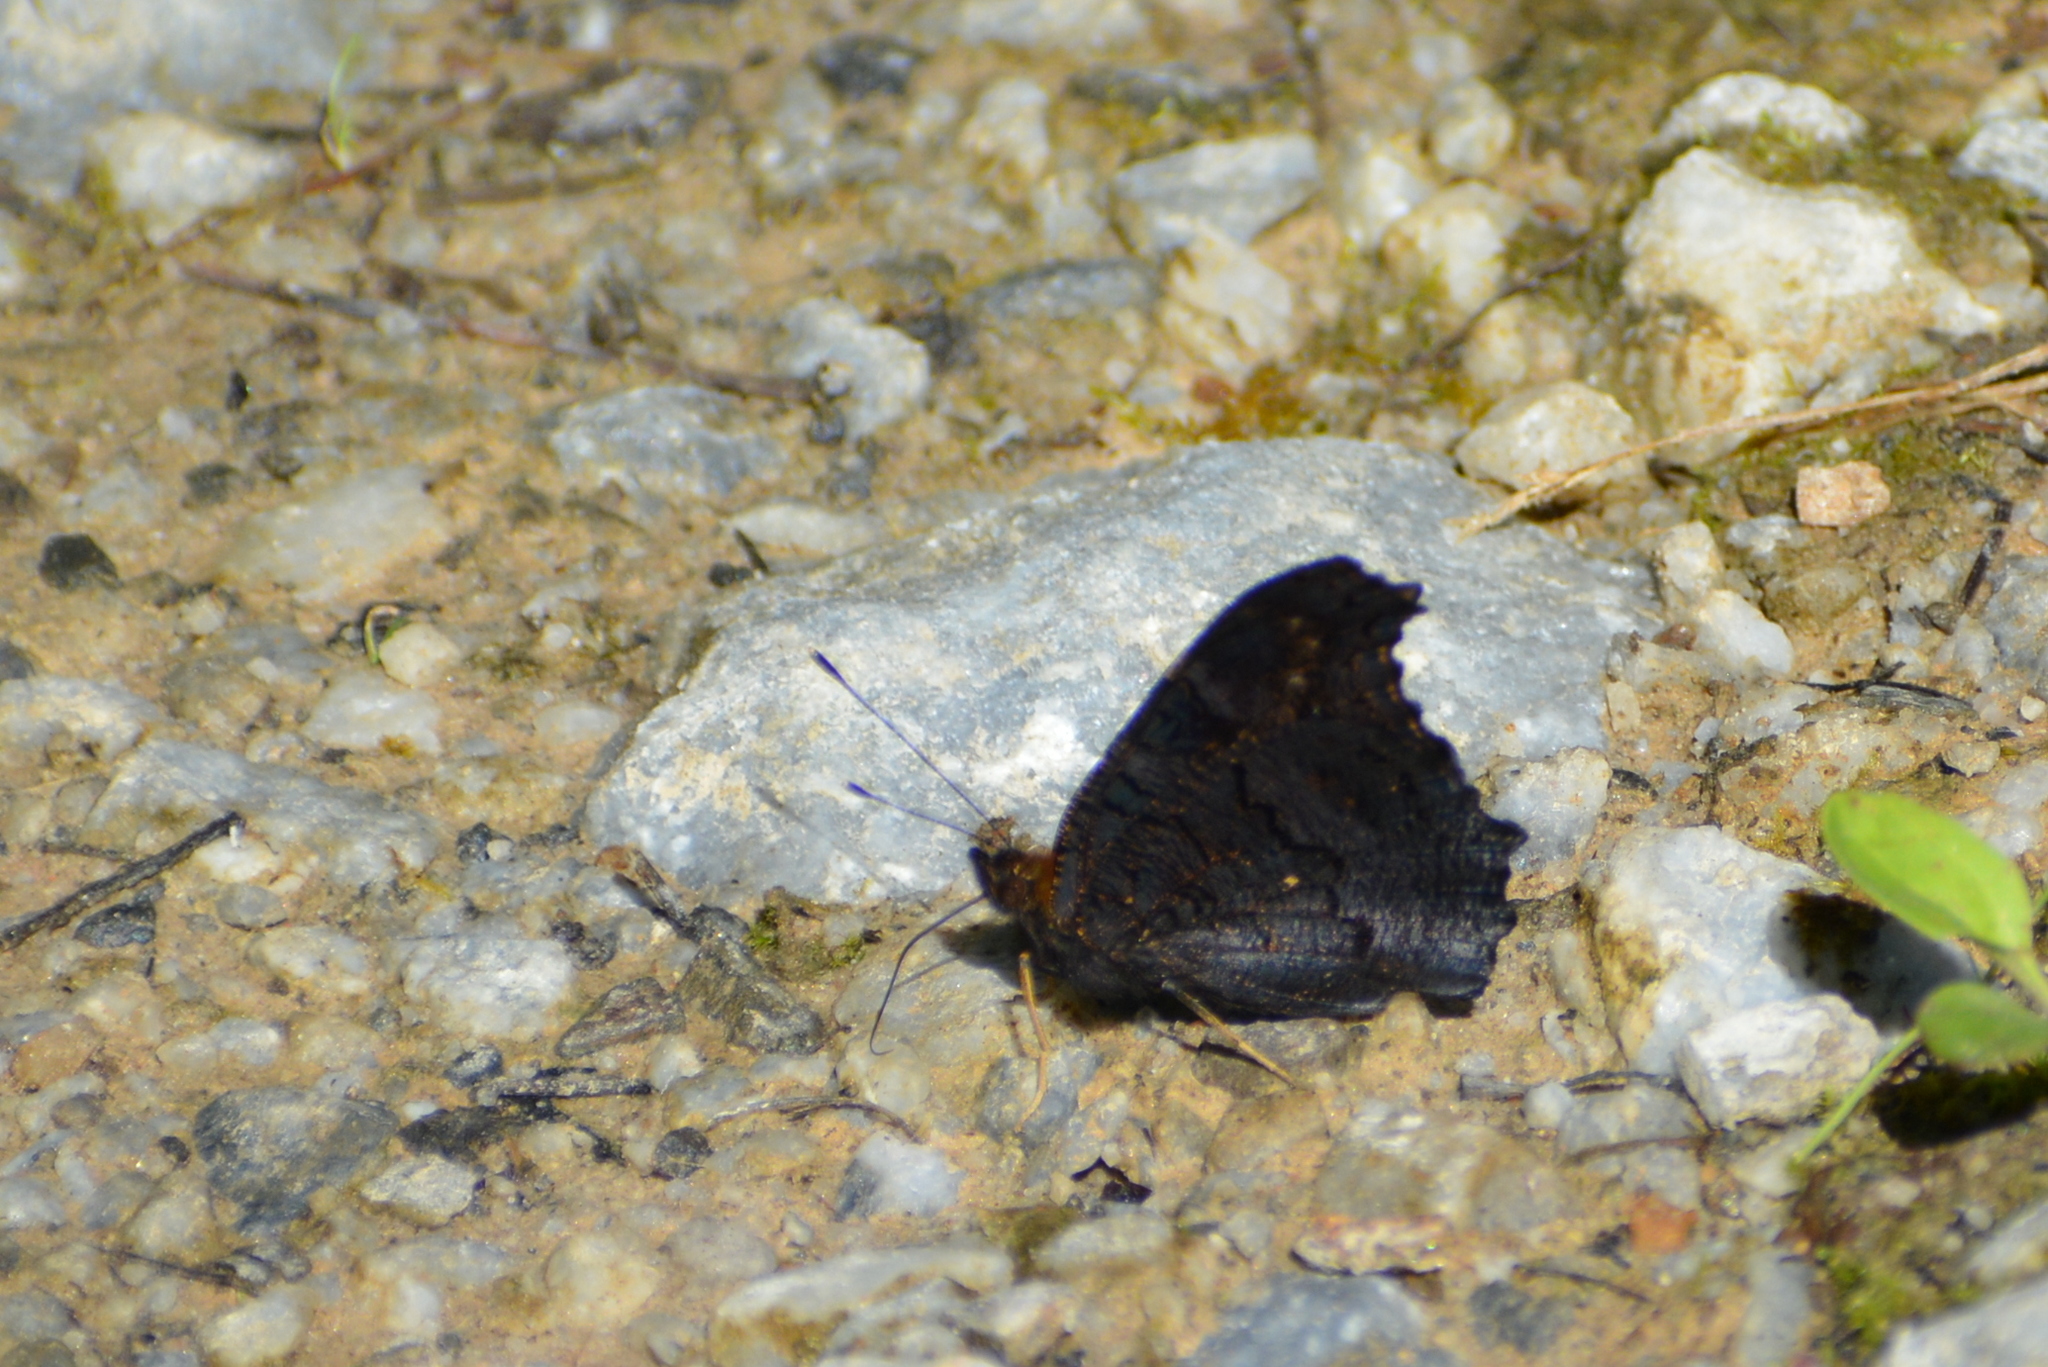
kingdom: Animalia
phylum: Arthropoda
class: Insecta
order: Lepidoptera
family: Nymphalidae
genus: Aglais
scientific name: Aglais io
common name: Peacock
